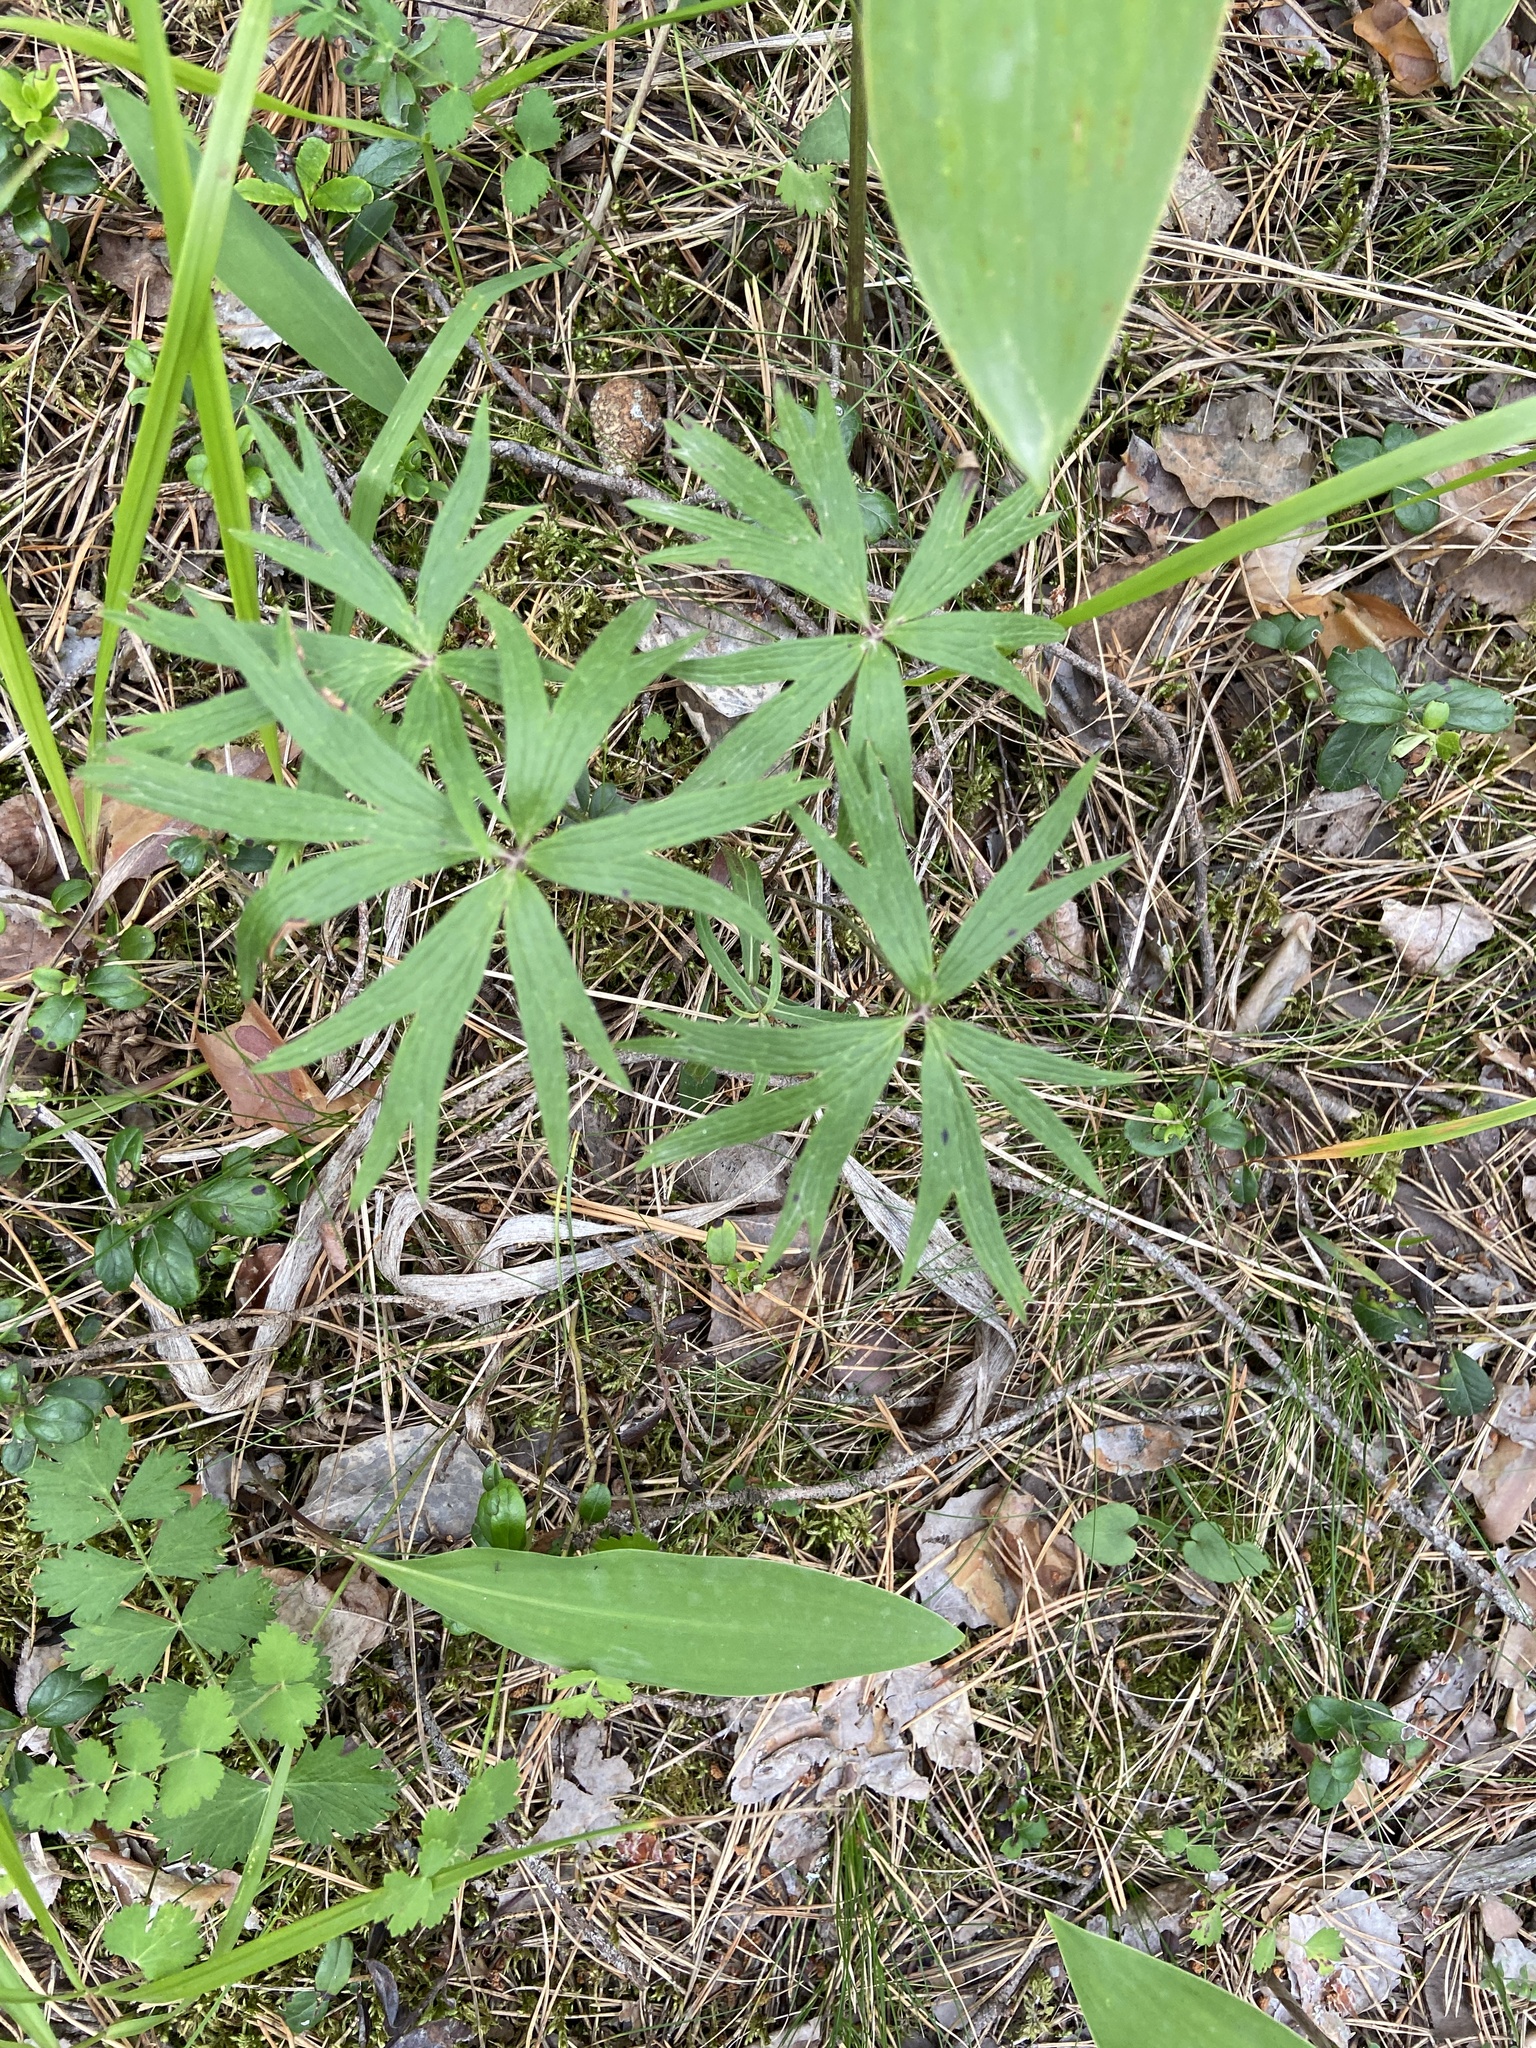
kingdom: Plantae
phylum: Tracheophyta
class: Magnoliopsida
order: Ranunculales
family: Ranunculaceae
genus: Pulsatilla
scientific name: Pulsatilla patens
